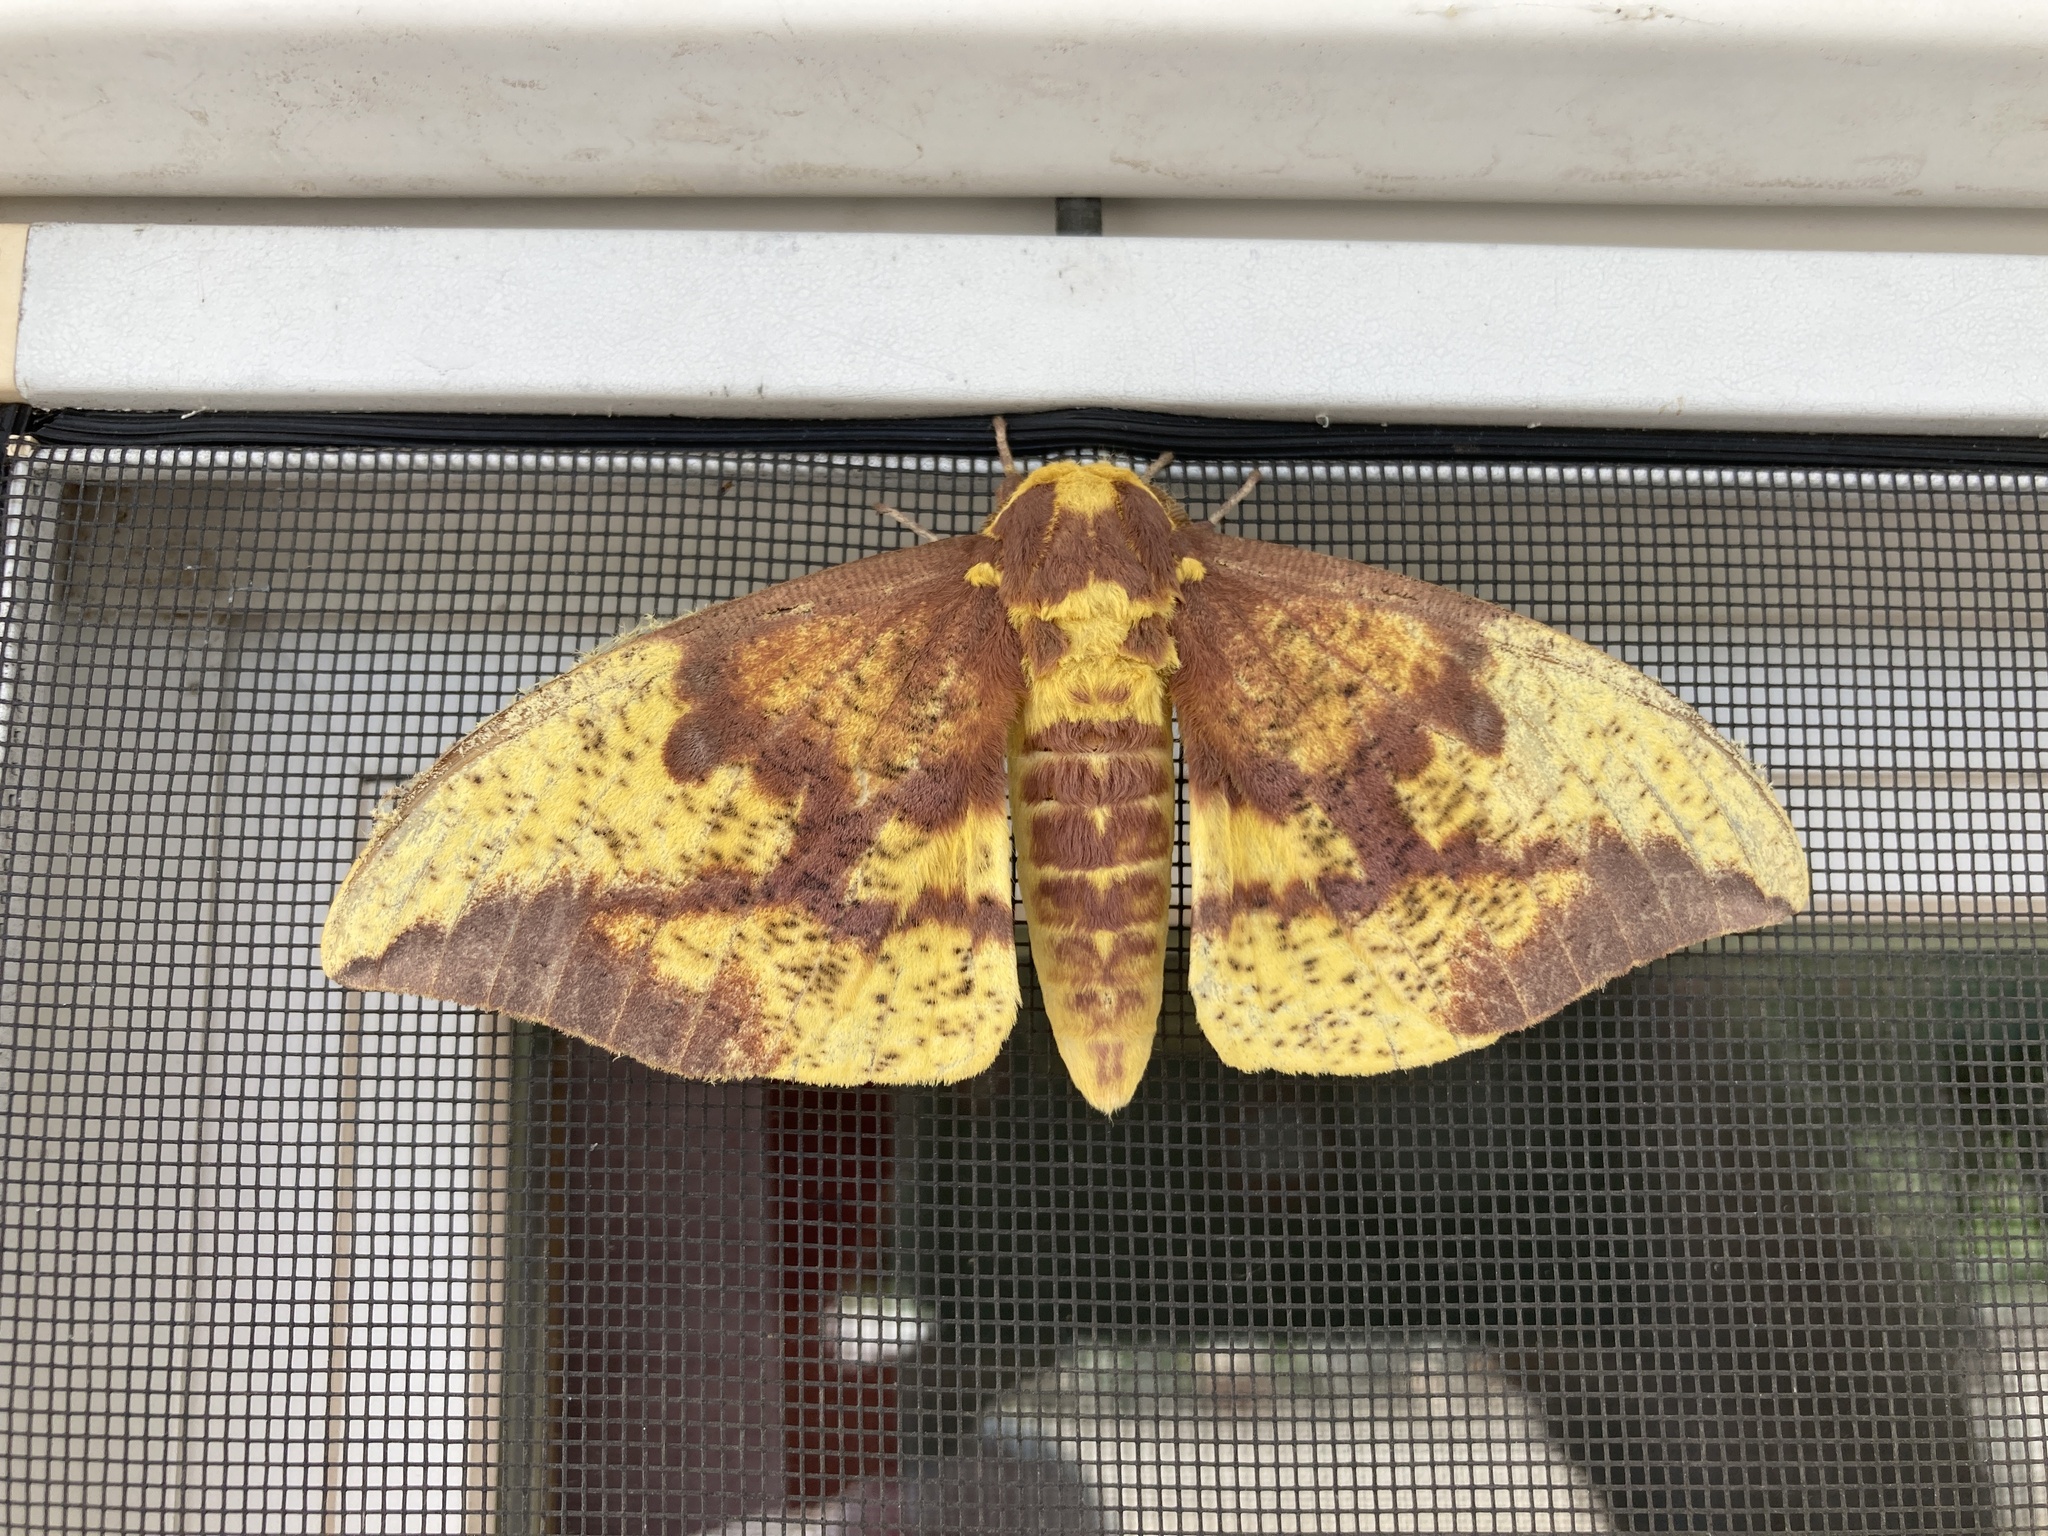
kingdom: Animalia
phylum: Arthropoda
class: Insecta
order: Lepidoptera
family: Saturniidae
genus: Eacles
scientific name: Eacles imperialis
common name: Imperial moth
